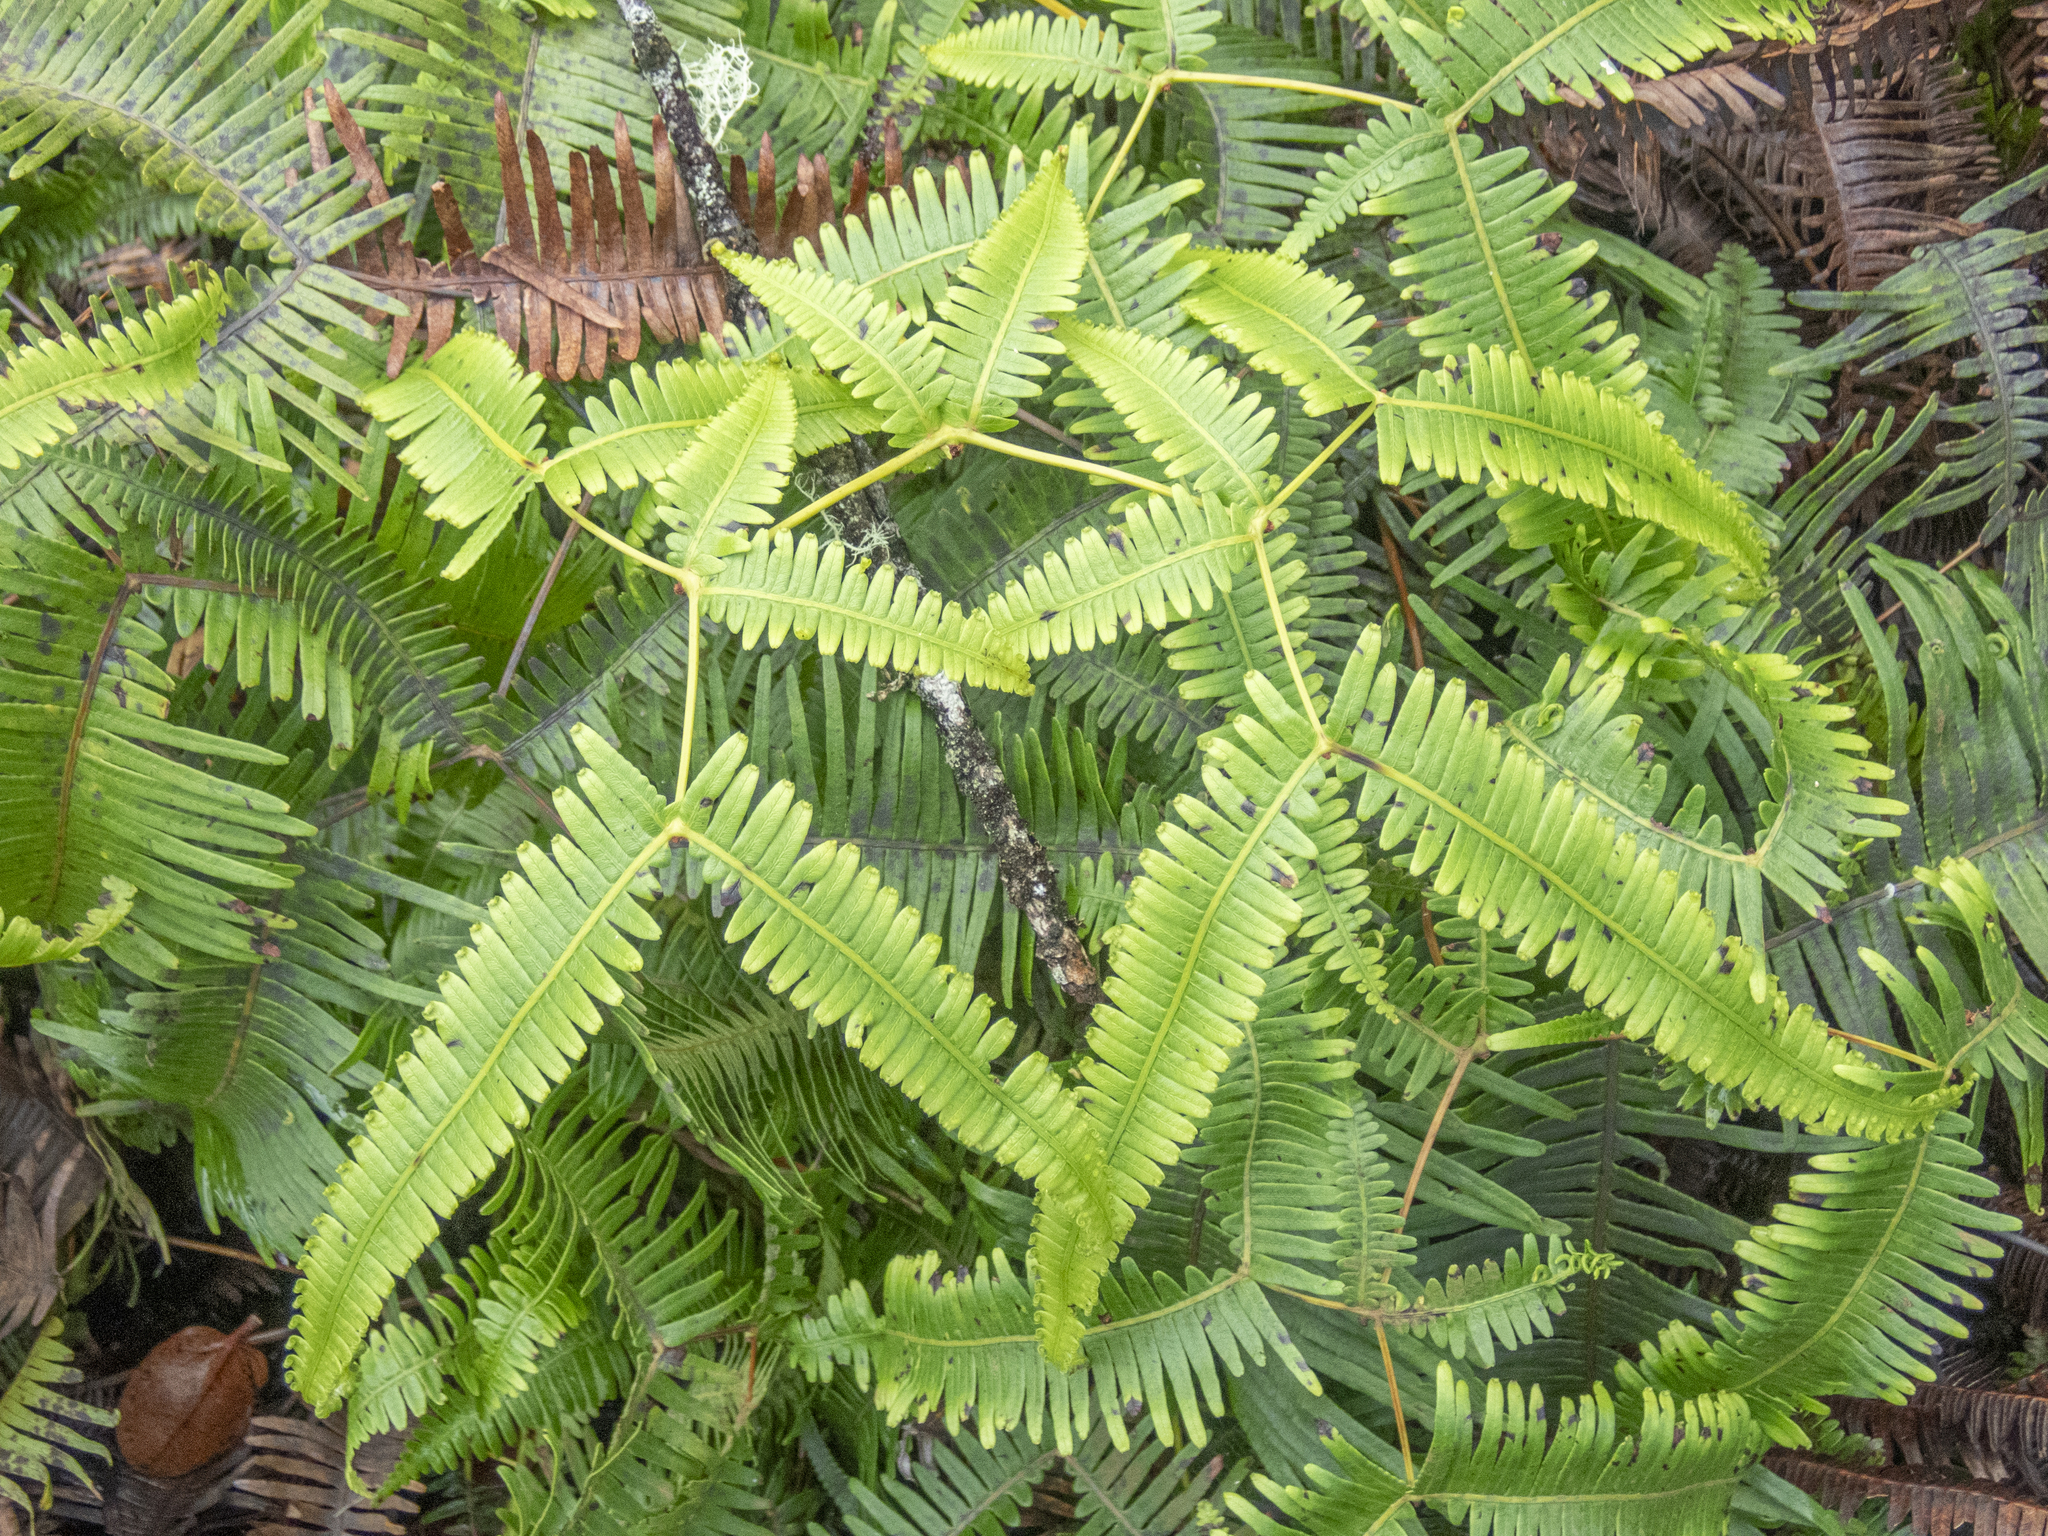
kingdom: Plantae
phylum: Tracheophyta
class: Polypodiopsida
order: Gleicheniales
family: Gleicheniaceae
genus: Dicranopteris
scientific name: Dicranopteris linearis
